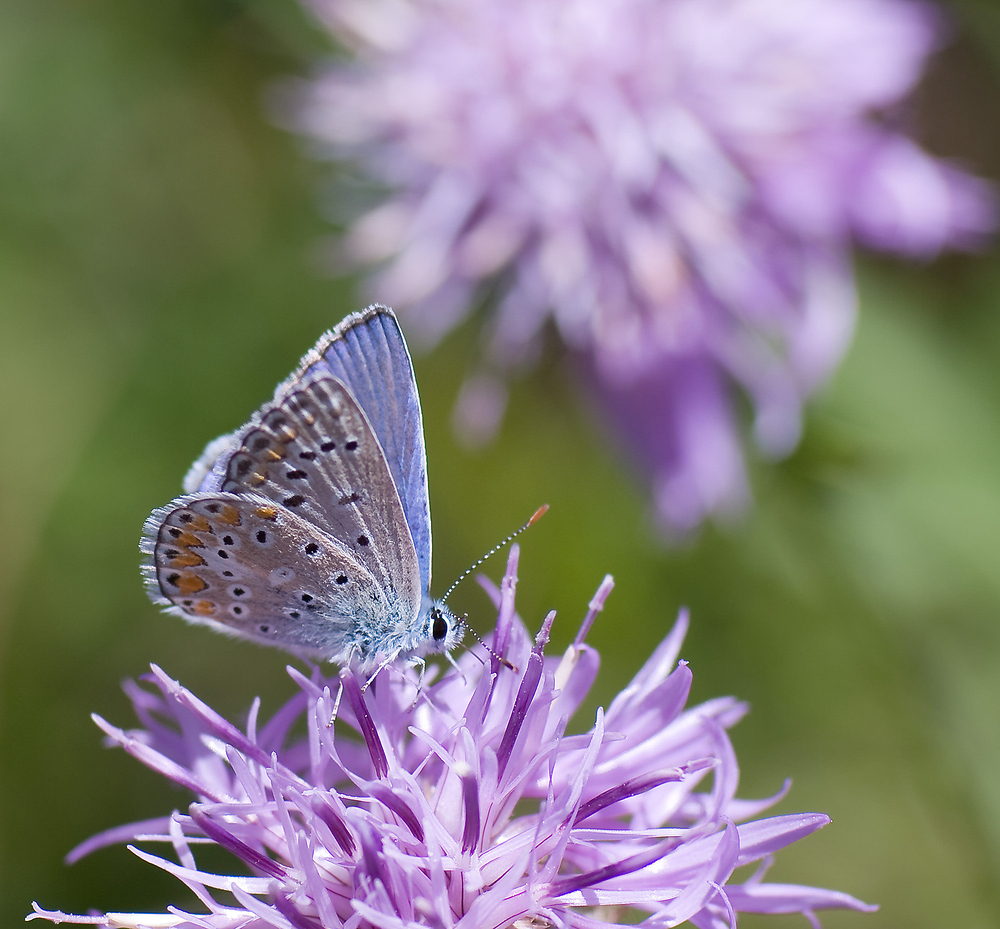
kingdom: Animalia
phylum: Arthropoda
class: Insecta
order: Lepidoptera
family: Lycaenidae
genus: Polyommatus
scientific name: Polyommatus icarus
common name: Common blue
